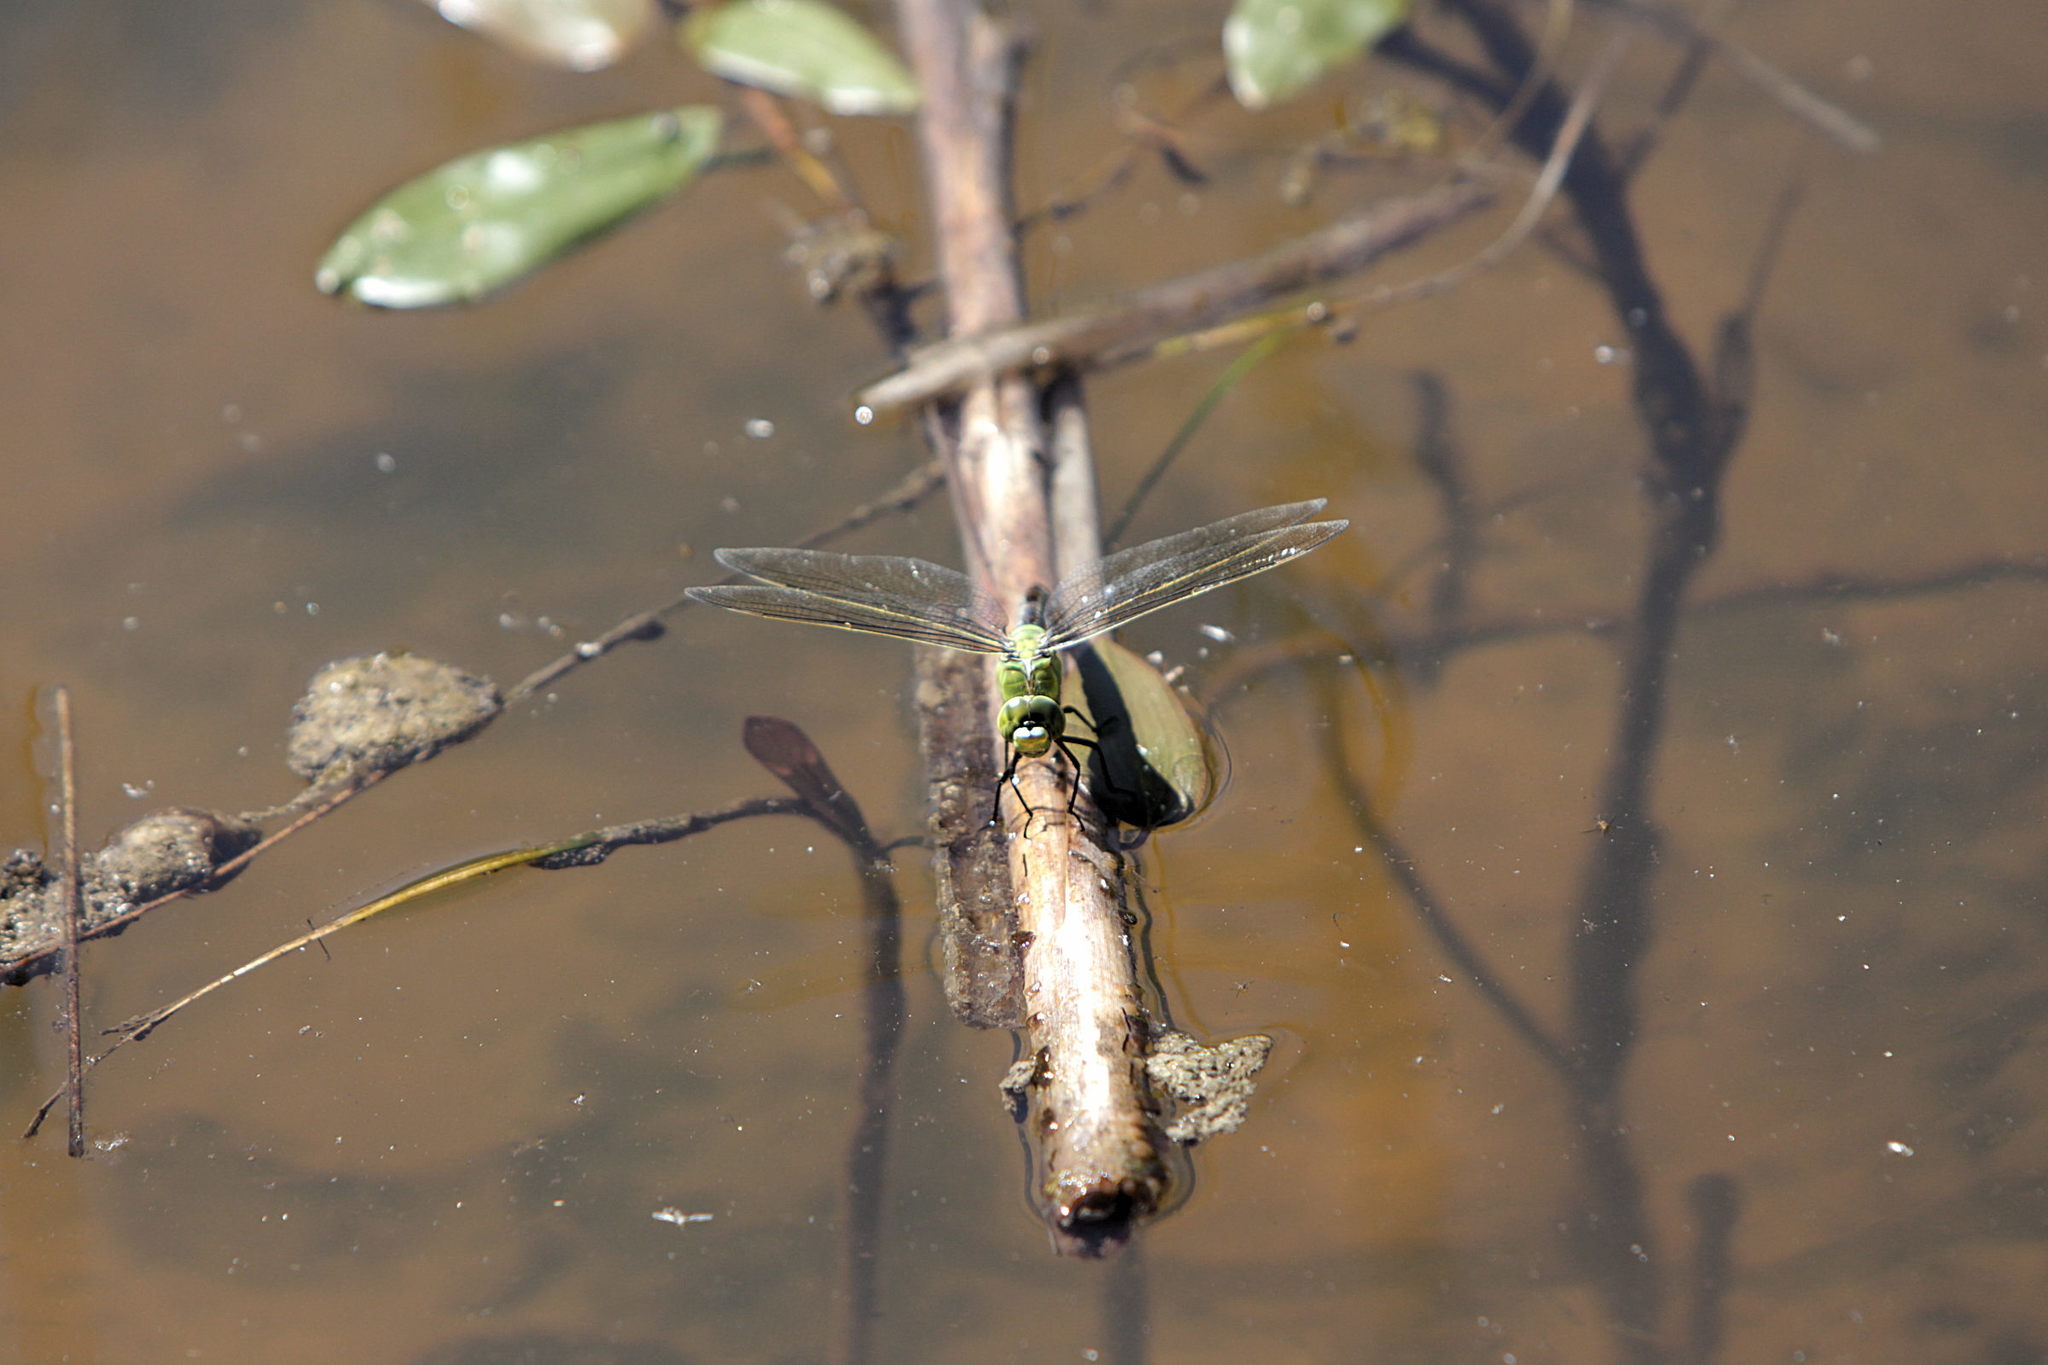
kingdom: Animalia
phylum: Arthropoda
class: Insecta
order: Odonata
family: Aeshnidae
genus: Anax
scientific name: Anax imperator
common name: Emperor dragonfly
